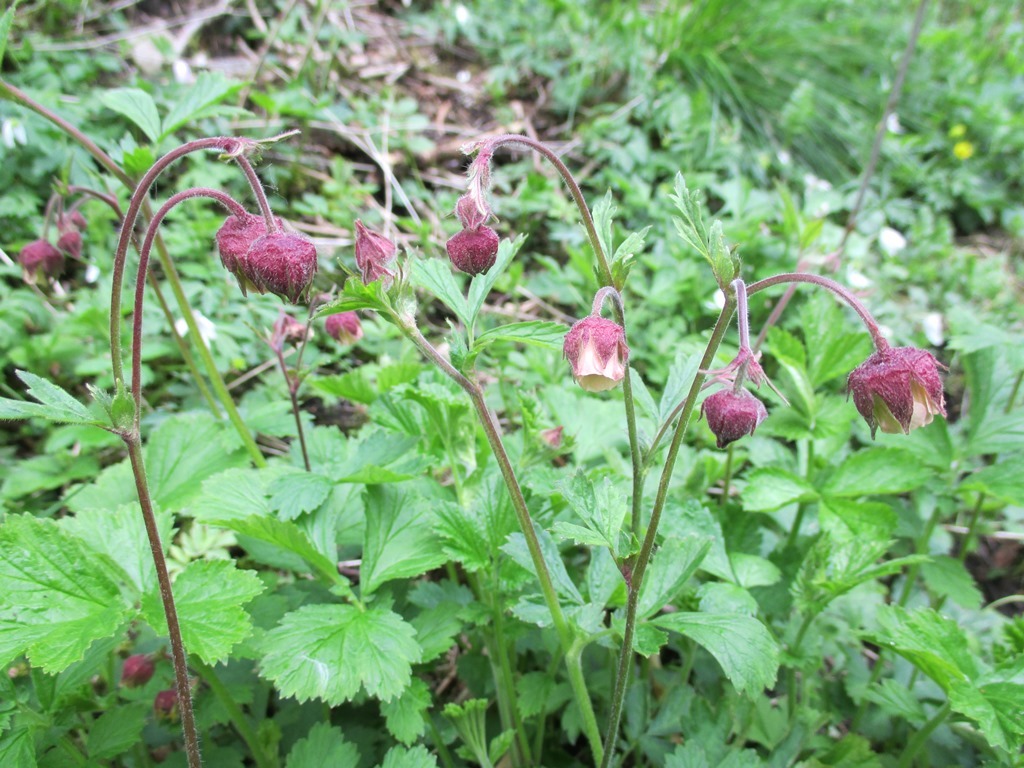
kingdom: Plantae
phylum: Tracheophyta
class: Magnoliopsida
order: Rosales
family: Rosaceae
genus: Geum
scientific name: Geum rivale
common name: Water avens
